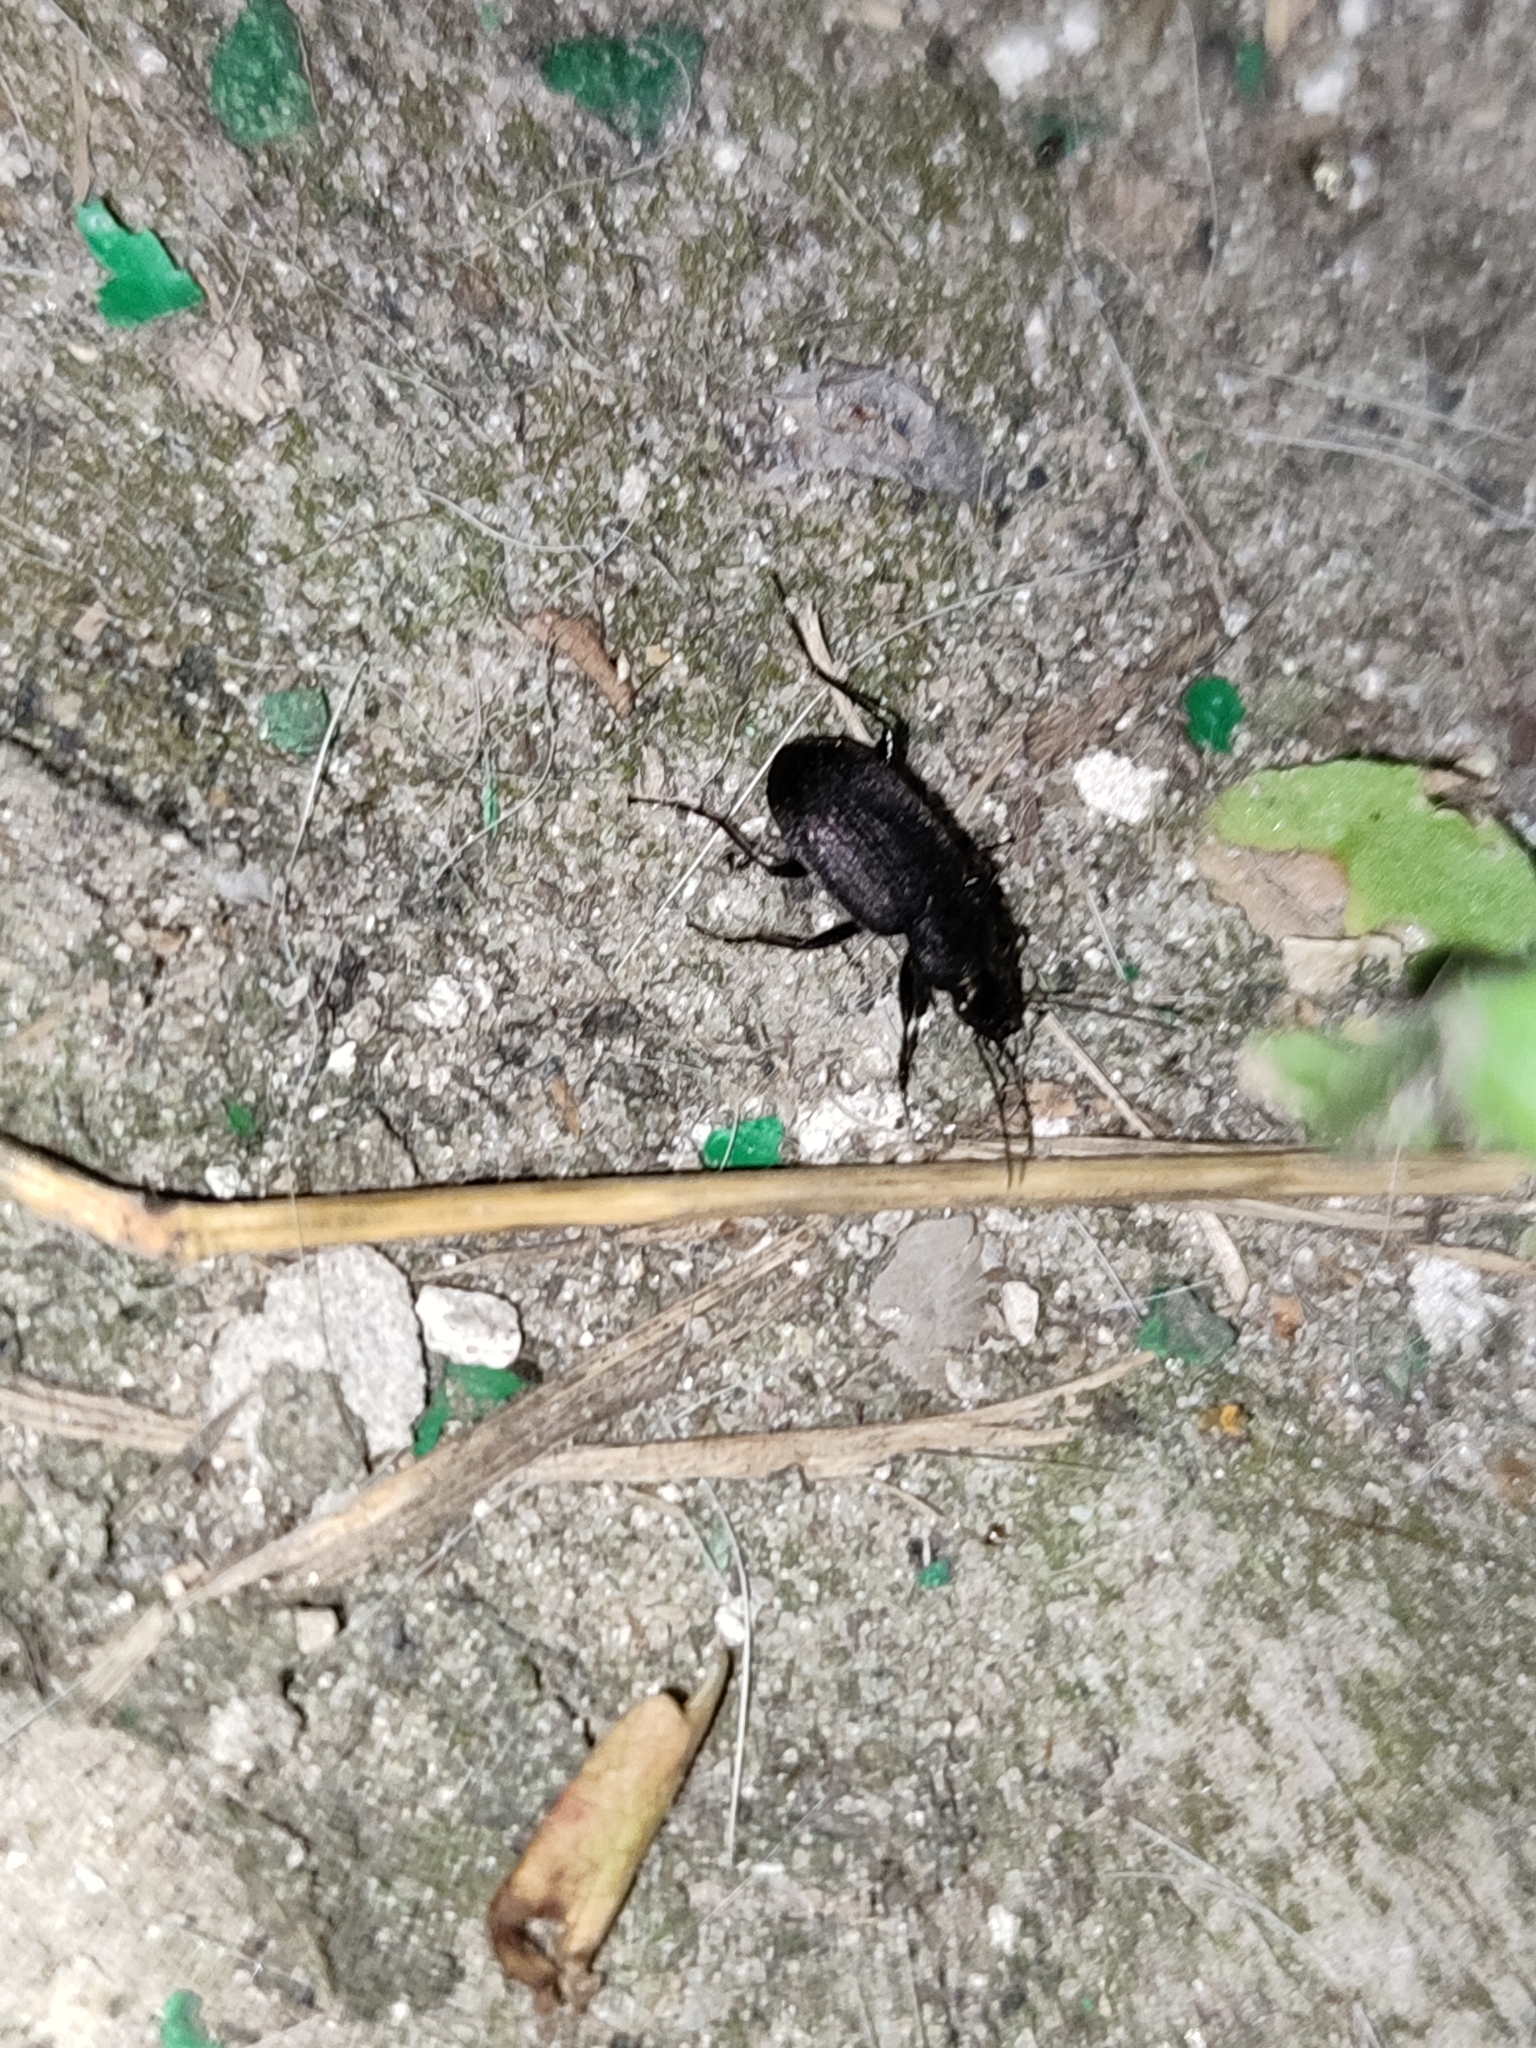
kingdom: Animalia
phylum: Arthropoda
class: Insecta
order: Coleoptera
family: Carabidae
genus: Chlaenius
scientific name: Chlaenius tristis
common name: Black night-runner
